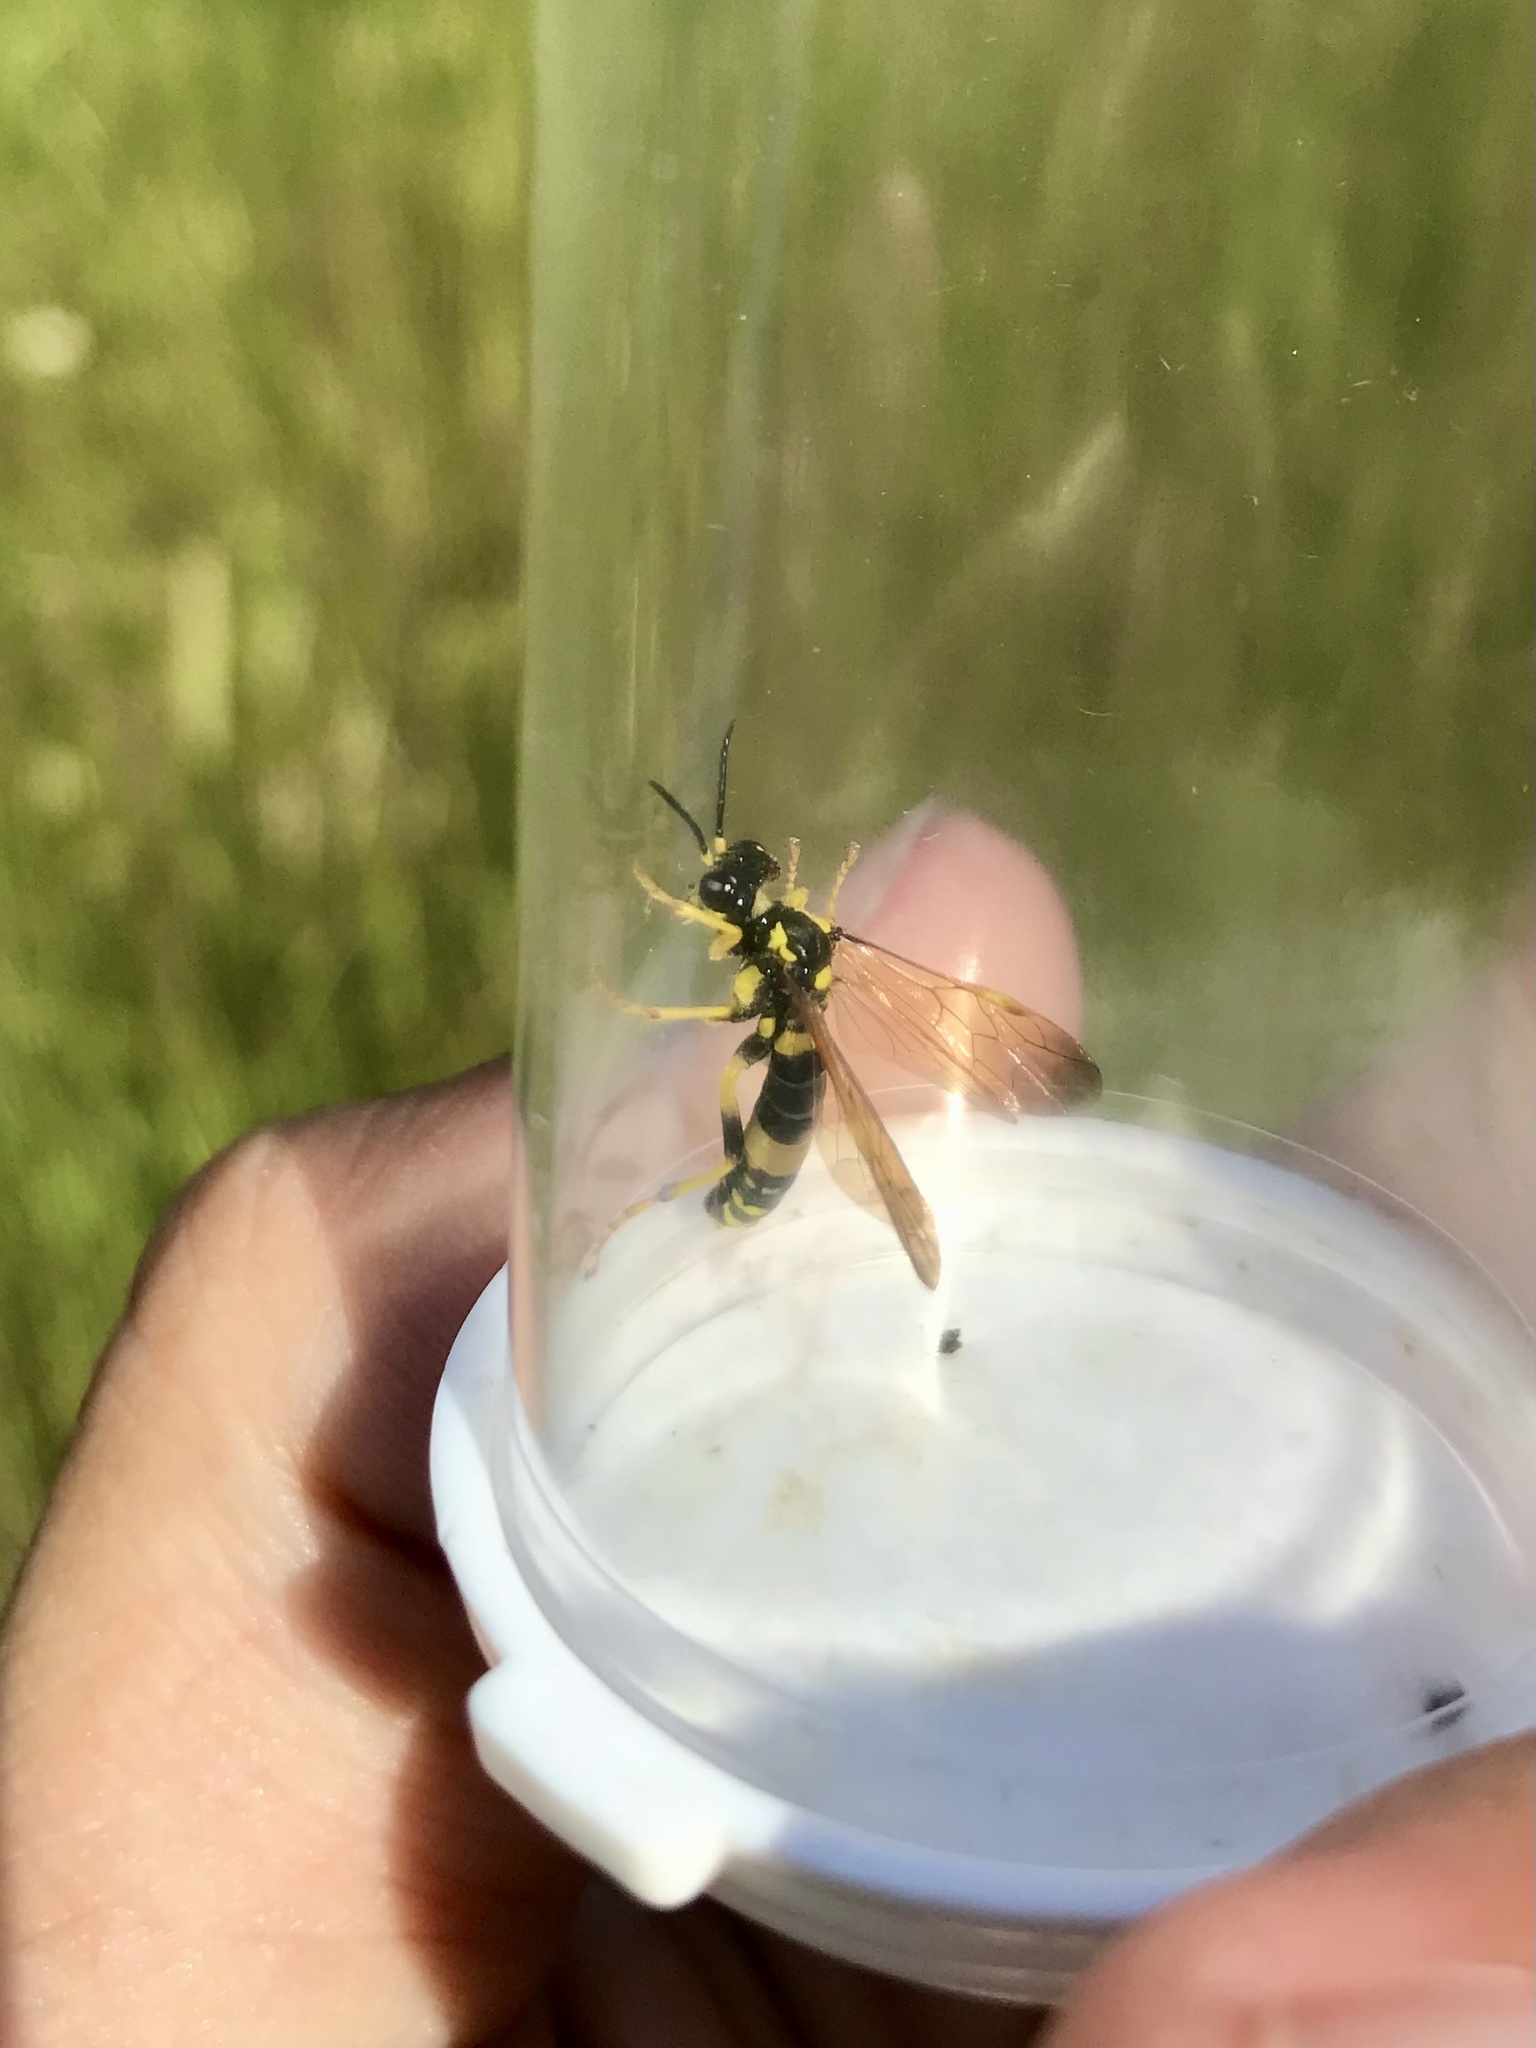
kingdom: Animalia
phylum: Arthropoda
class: Insecta
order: Hymenoptera
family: Tenthredinidae
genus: Tenthredo
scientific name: Tenthredo
